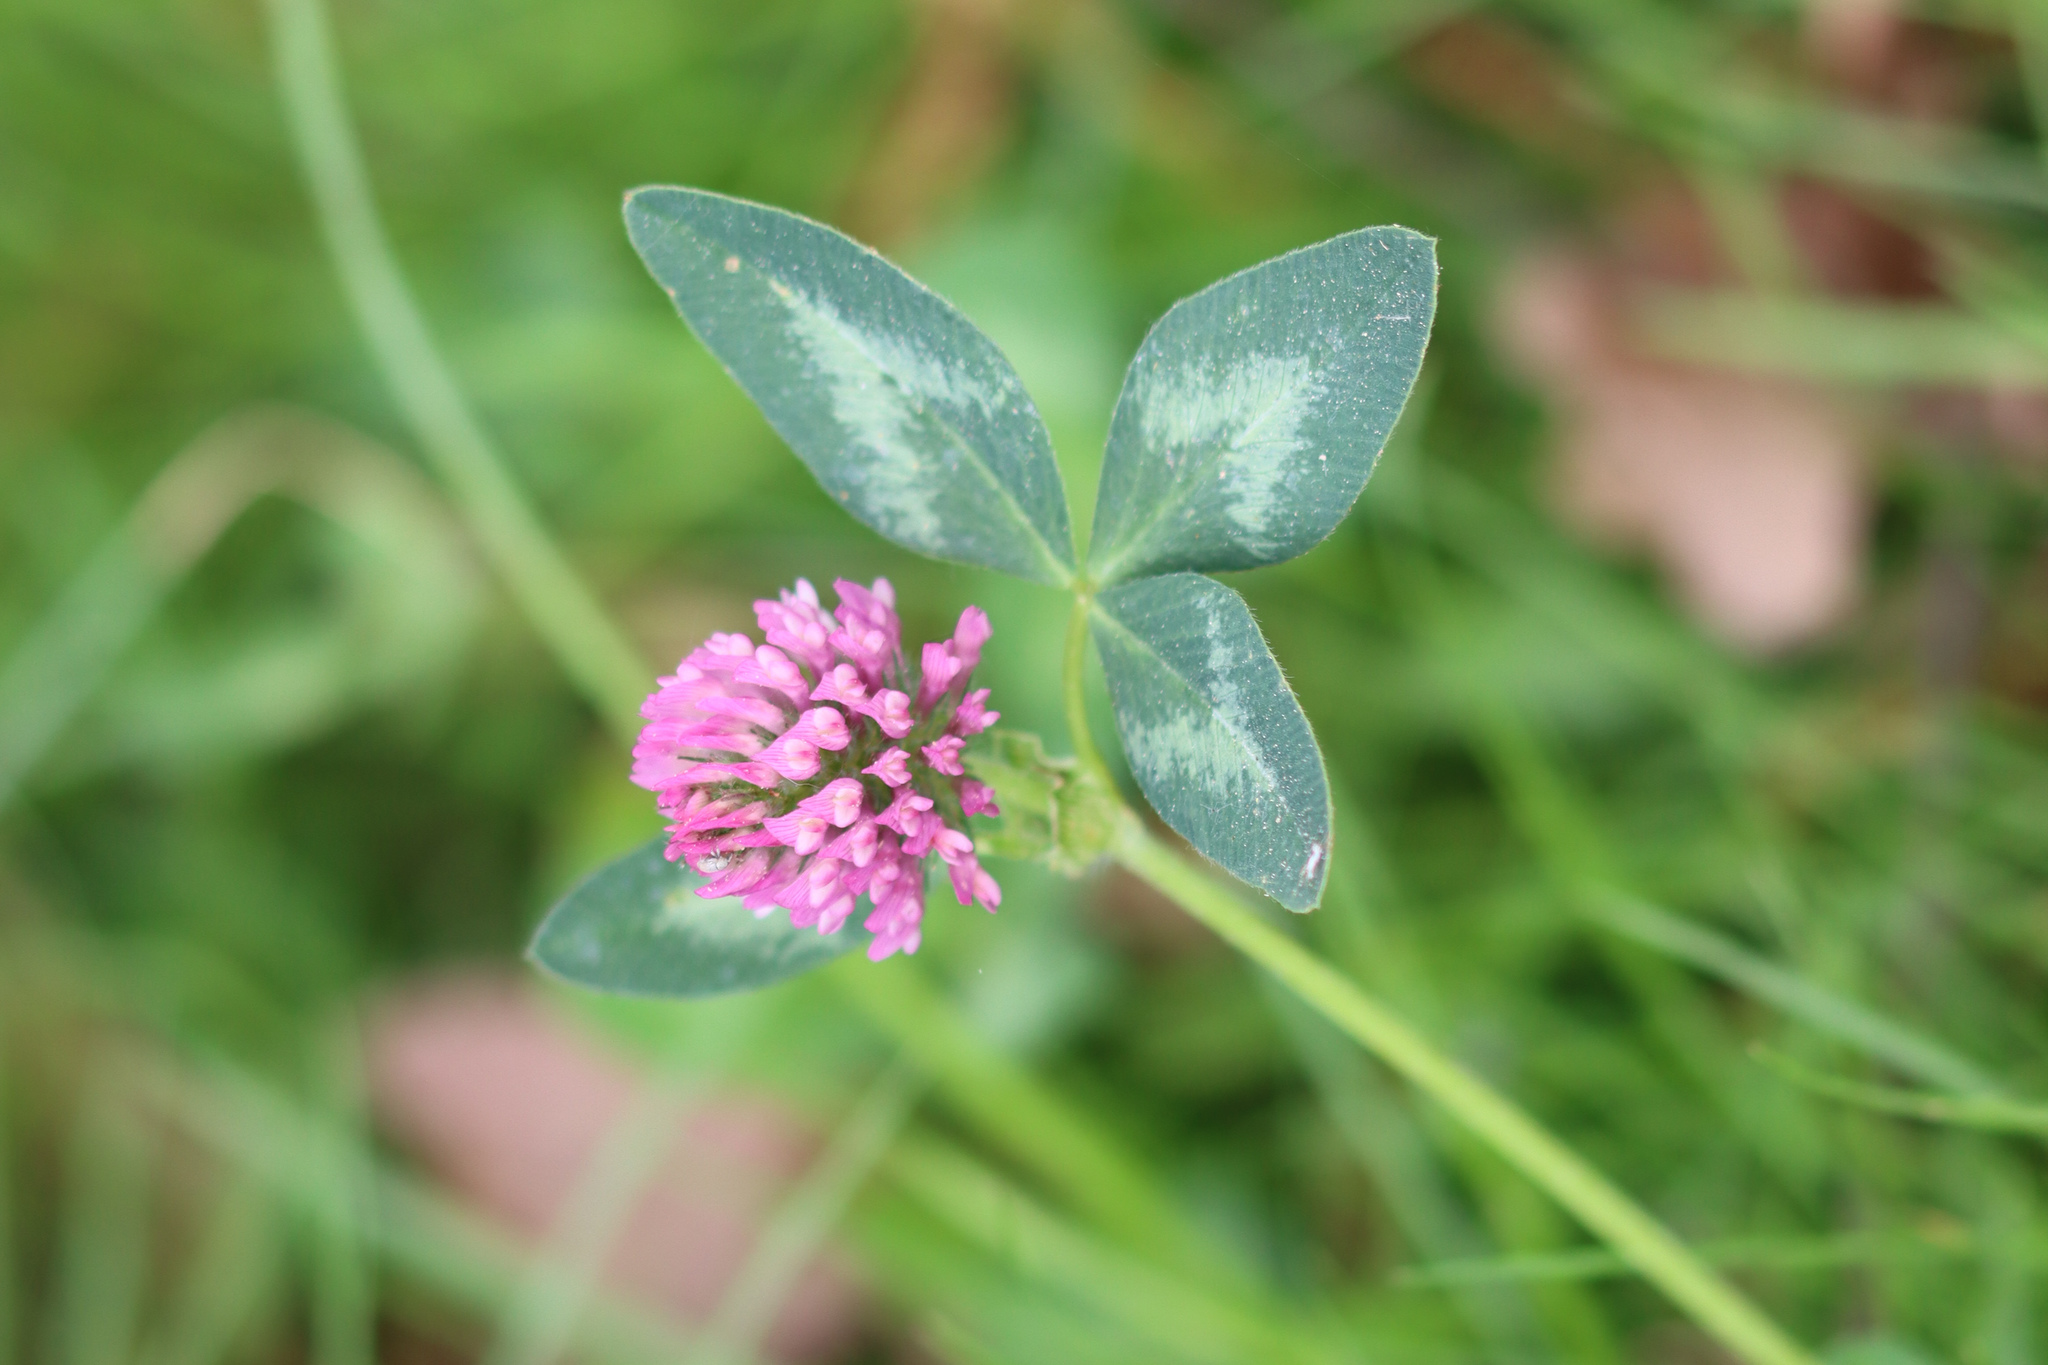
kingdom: Plantae
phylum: Tracheophyta
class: Magnoliopsida
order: Fabales
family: Fabaceae
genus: Trifolium
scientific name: Trifolium pratense
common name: Red clover
